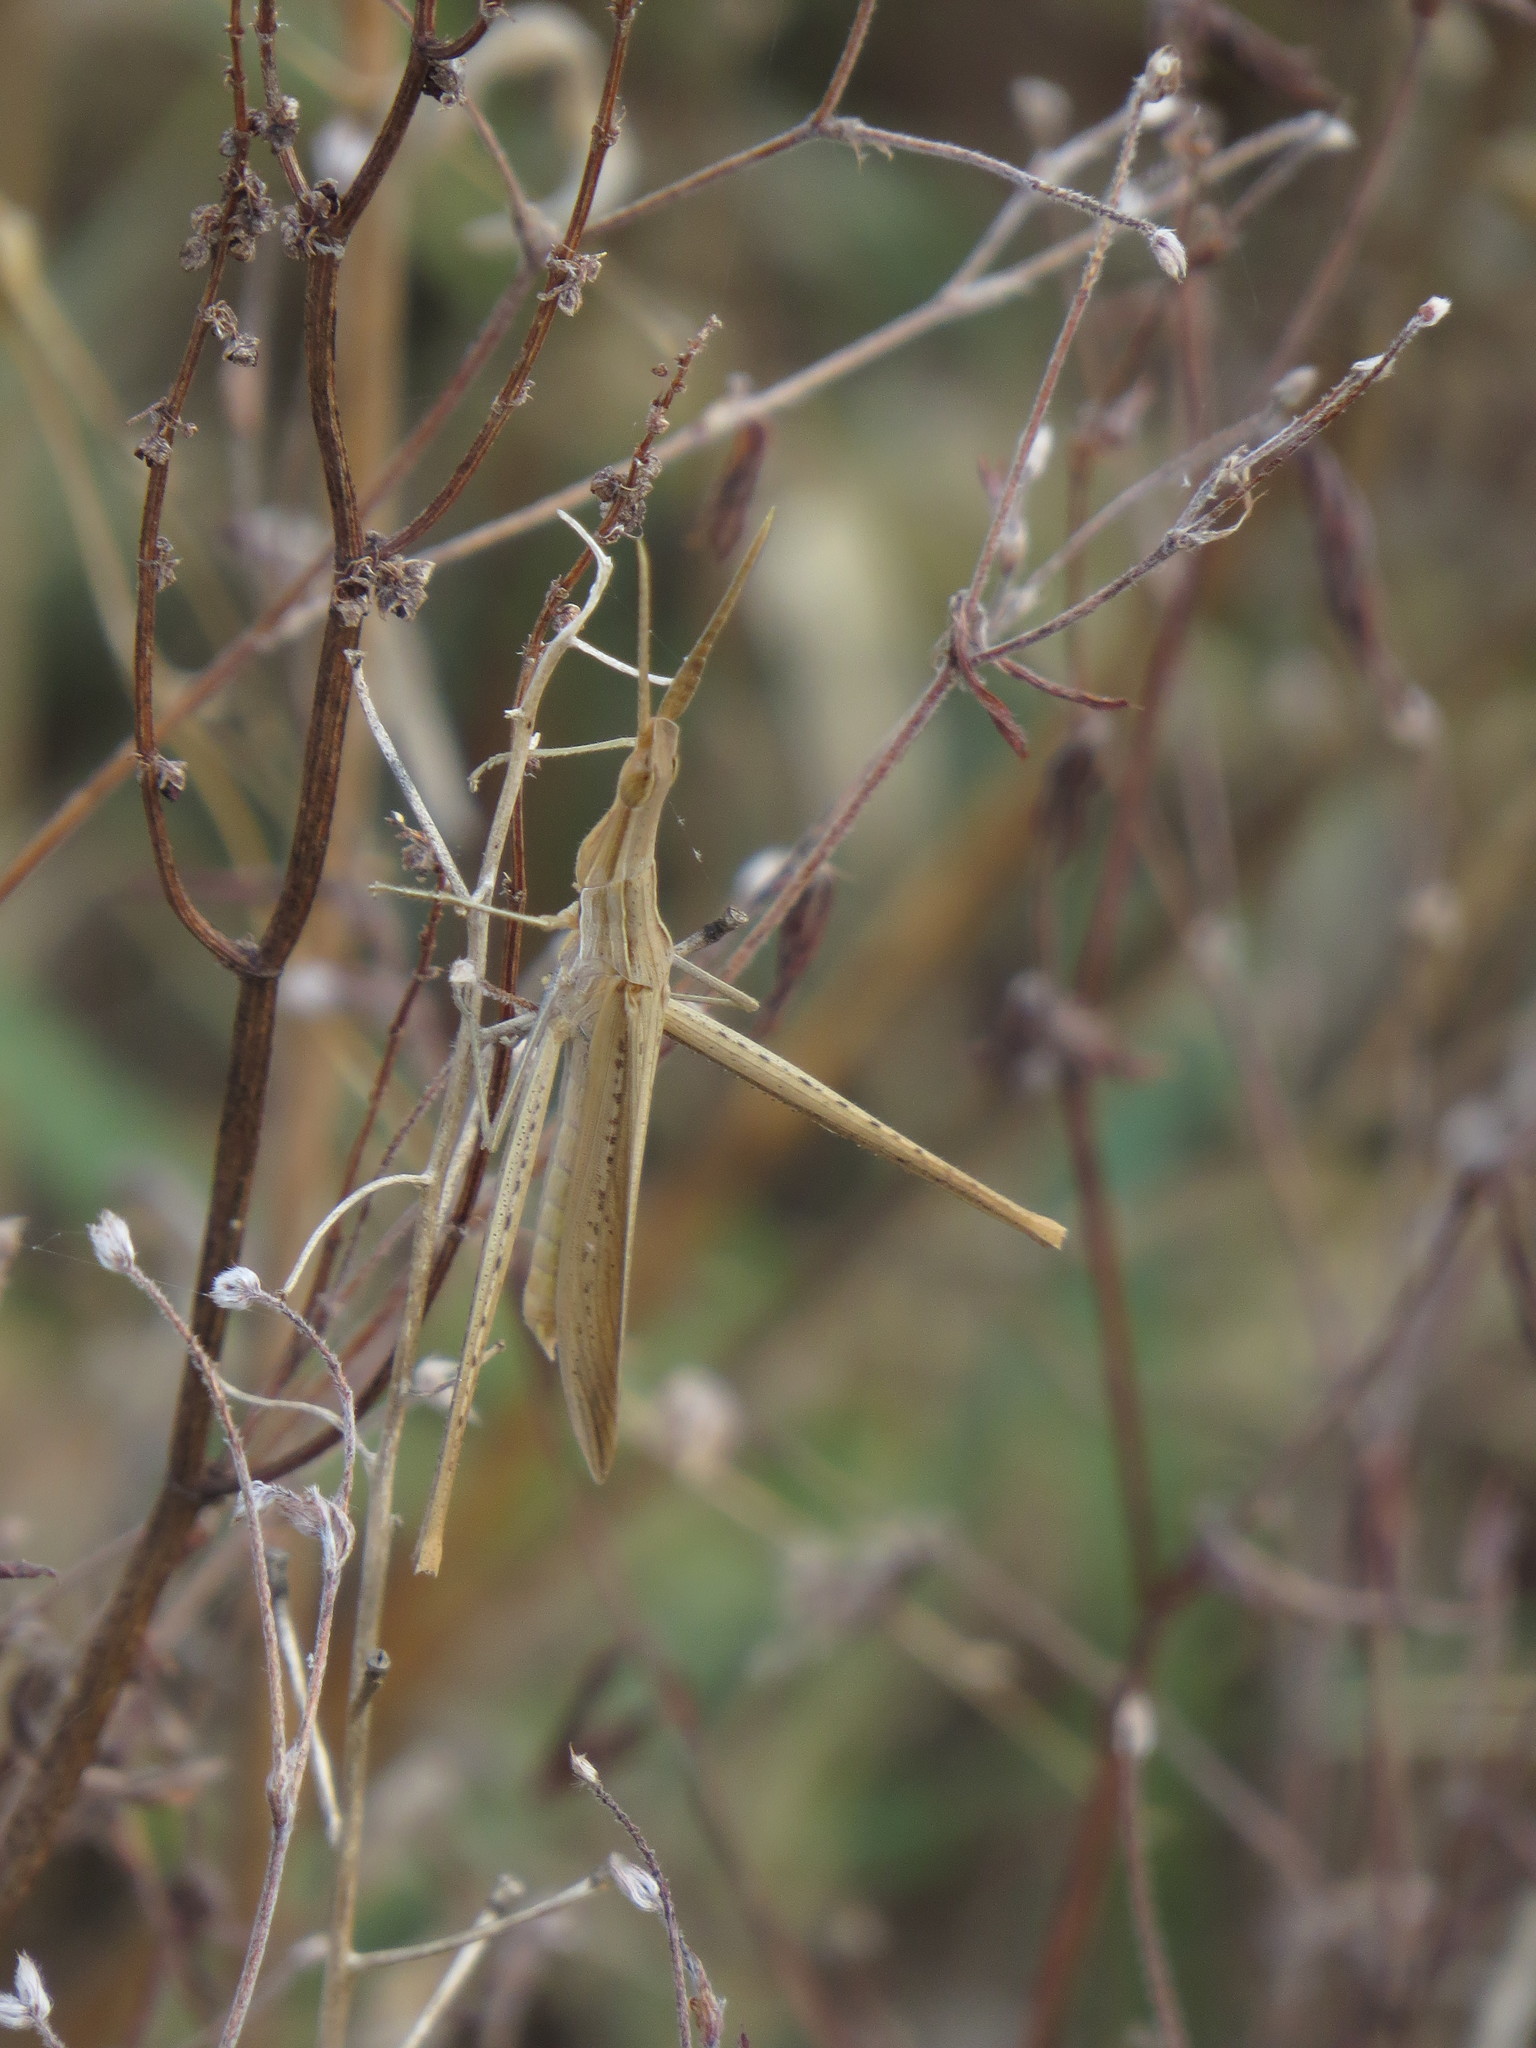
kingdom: Animalia
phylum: Arthropoda
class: Insecta
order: Orthoptera
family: Acrididae
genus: Acrida
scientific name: Acrida ungarica
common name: Common cone-headed grasshopper
